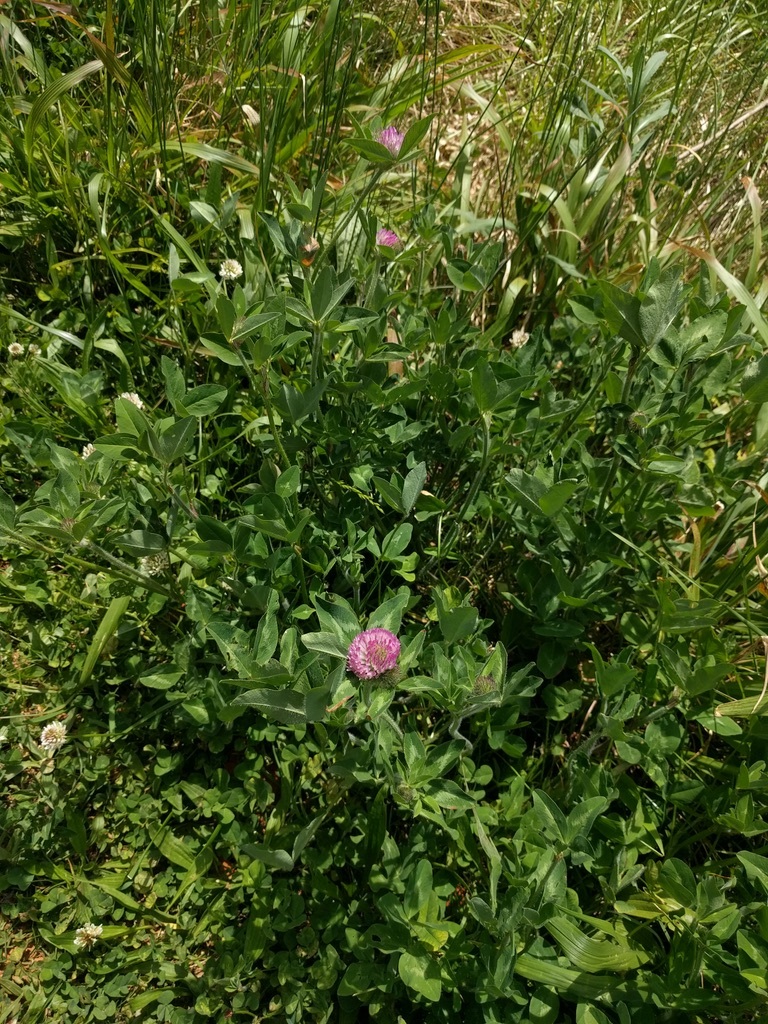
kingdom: Plantae
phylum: Tracheophyta
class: Magnoliopsida
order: Fabales
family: Fabaceae
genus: Trifolium
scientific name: Trifolium pratense
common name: Red clover
